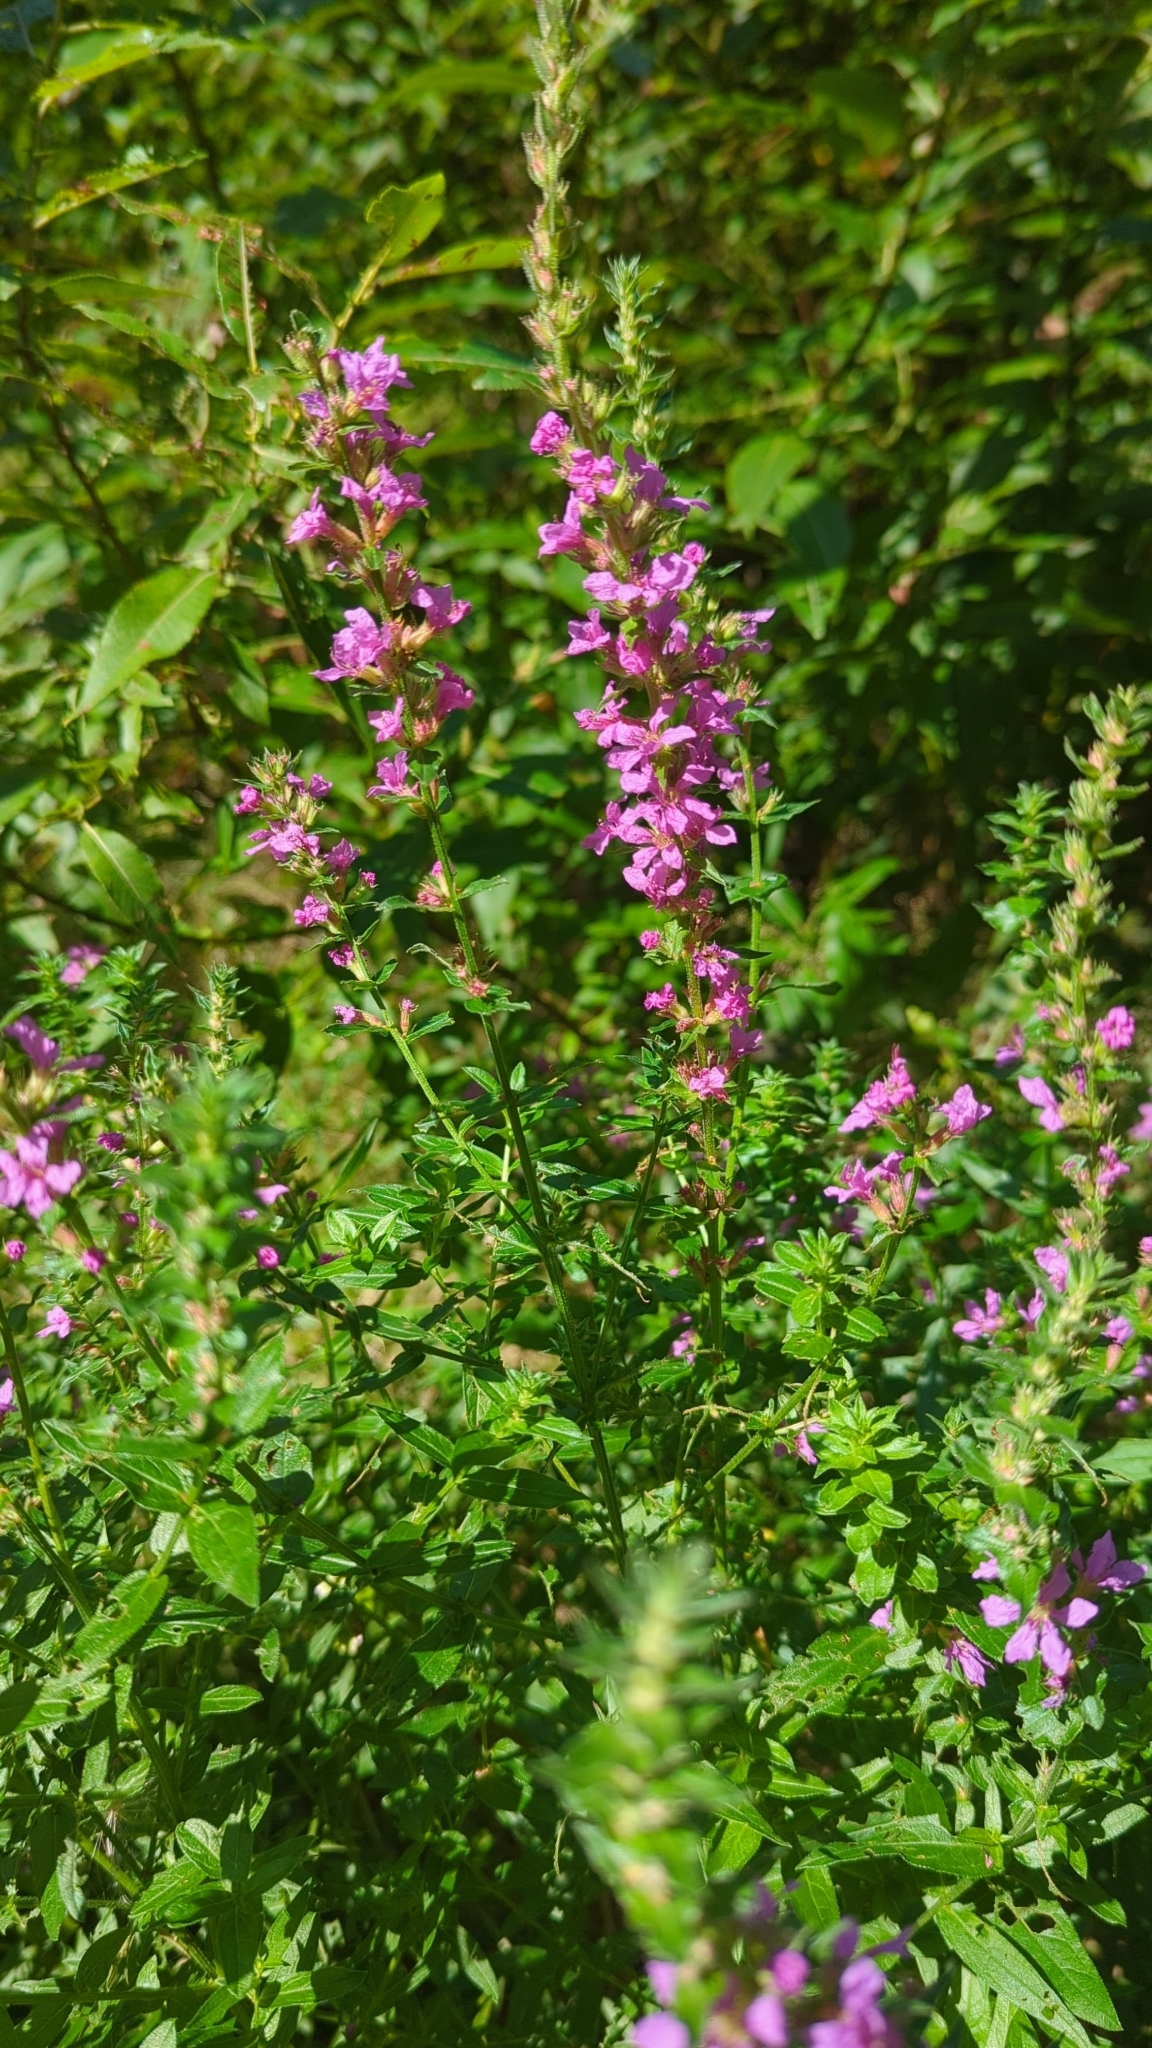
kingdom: Plantae
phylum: Tracheophyta
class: Magnoliopsida
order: Myrtales
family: Lythraceae
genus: Lythrum
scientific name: Lythrum salicaria
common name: Purple loosestrife
